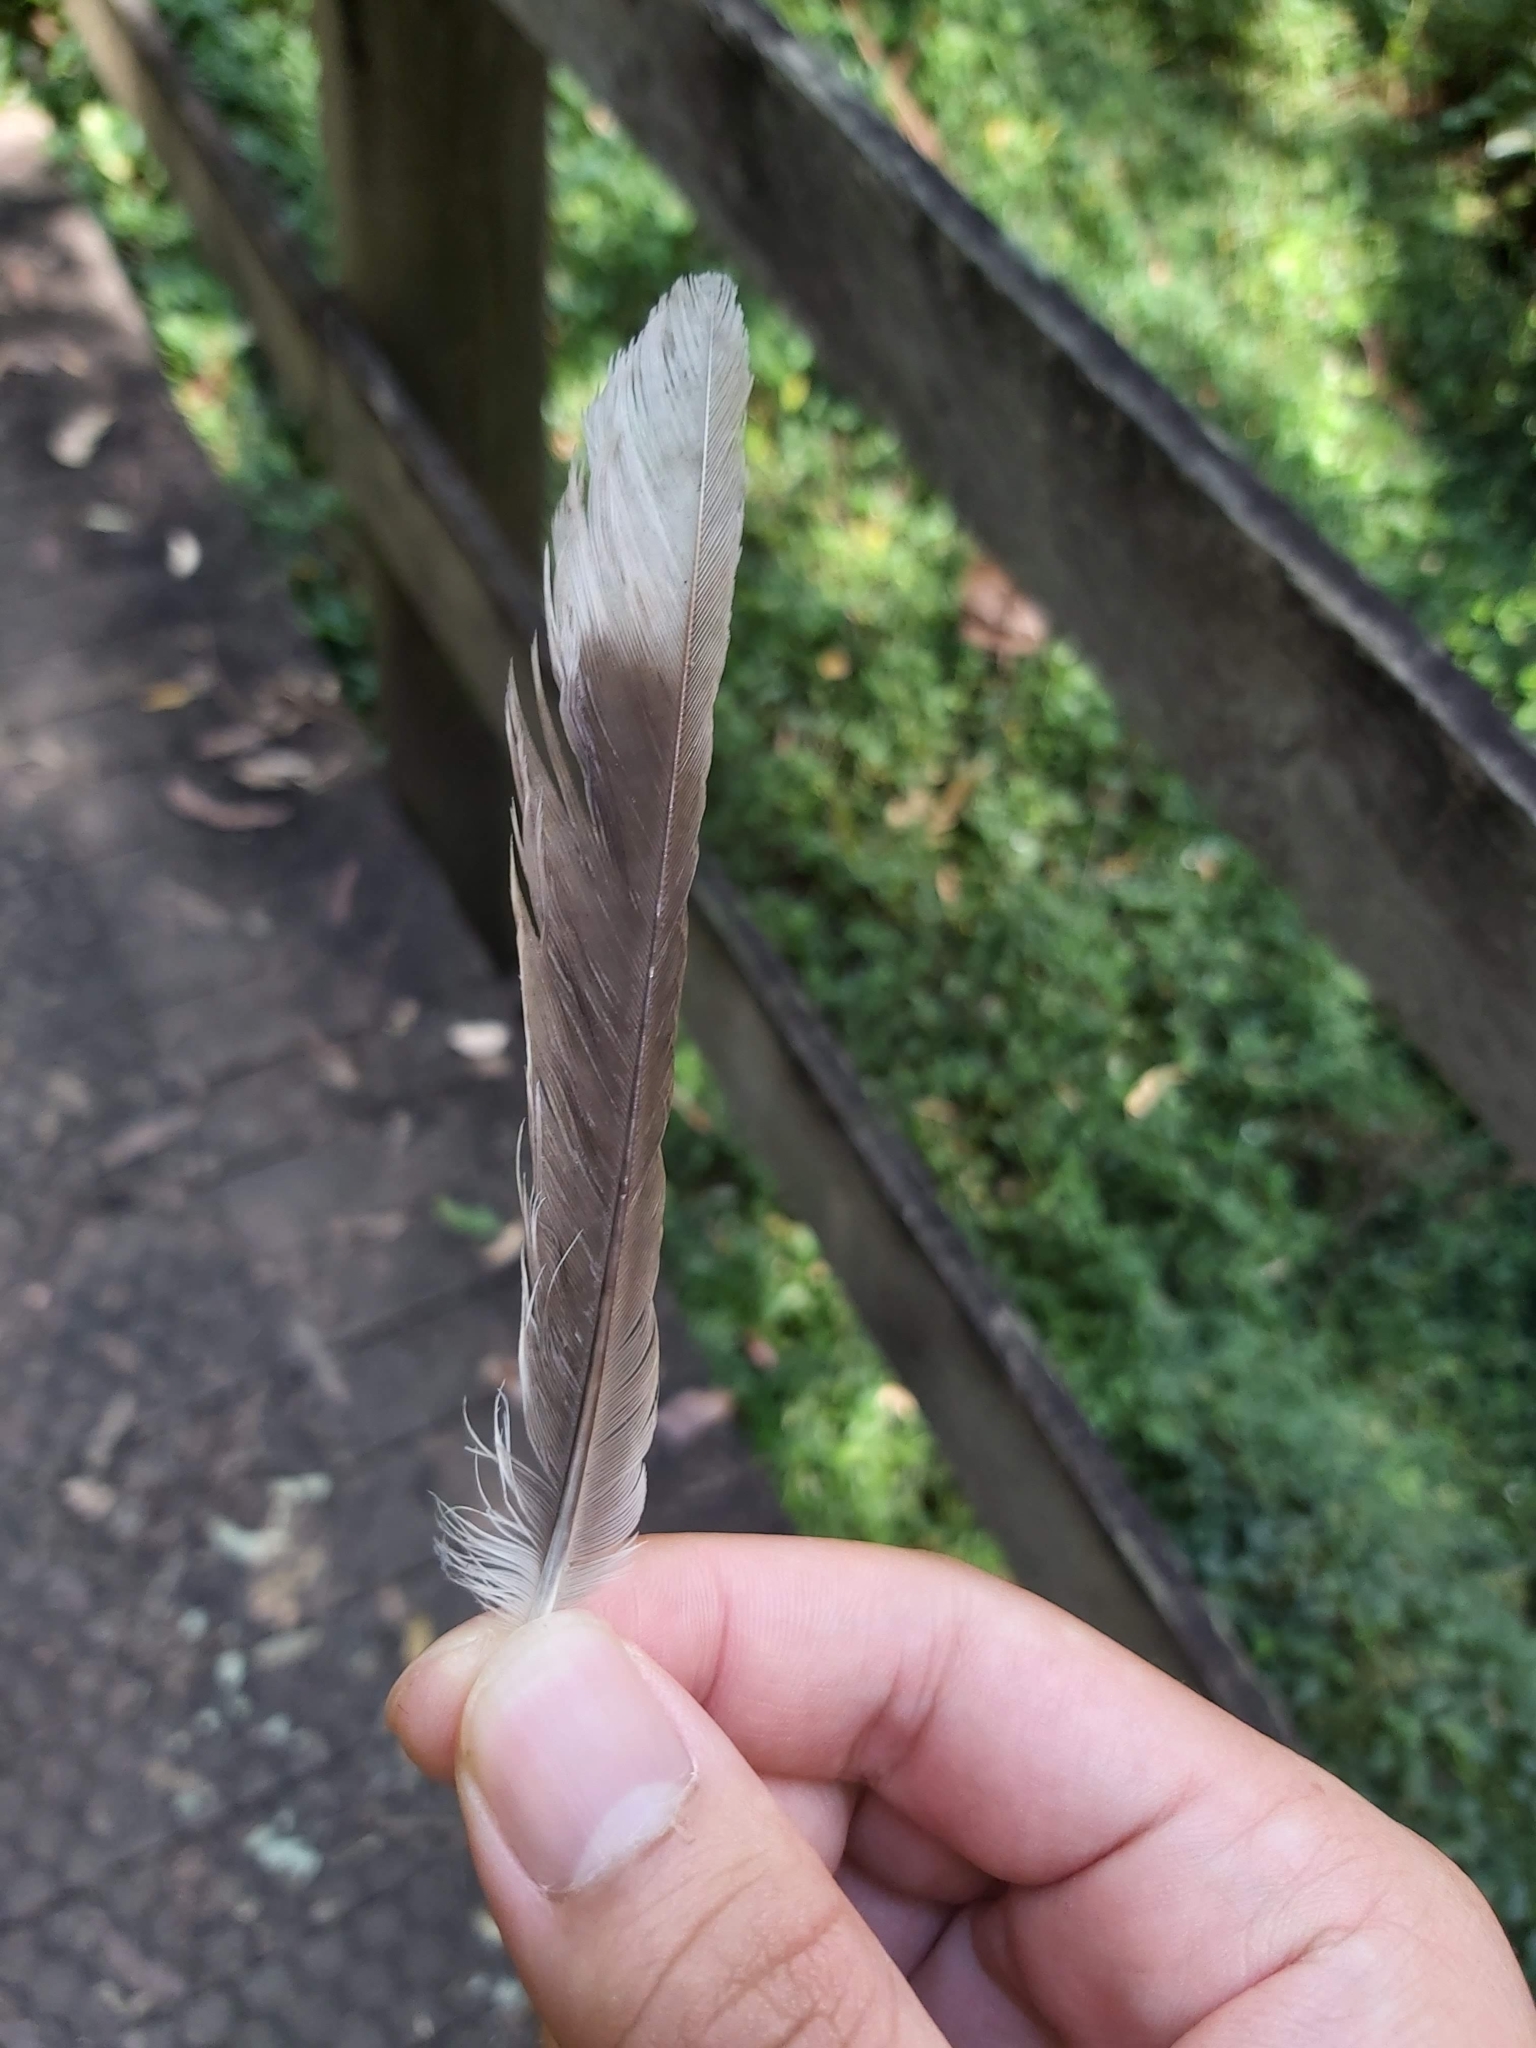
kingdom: Animalia
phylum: Chordata
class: Aves
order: Passeriformes
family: Meliphagidae
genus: Manorina
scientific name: Manorina melanocephala
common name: Noisy miner
